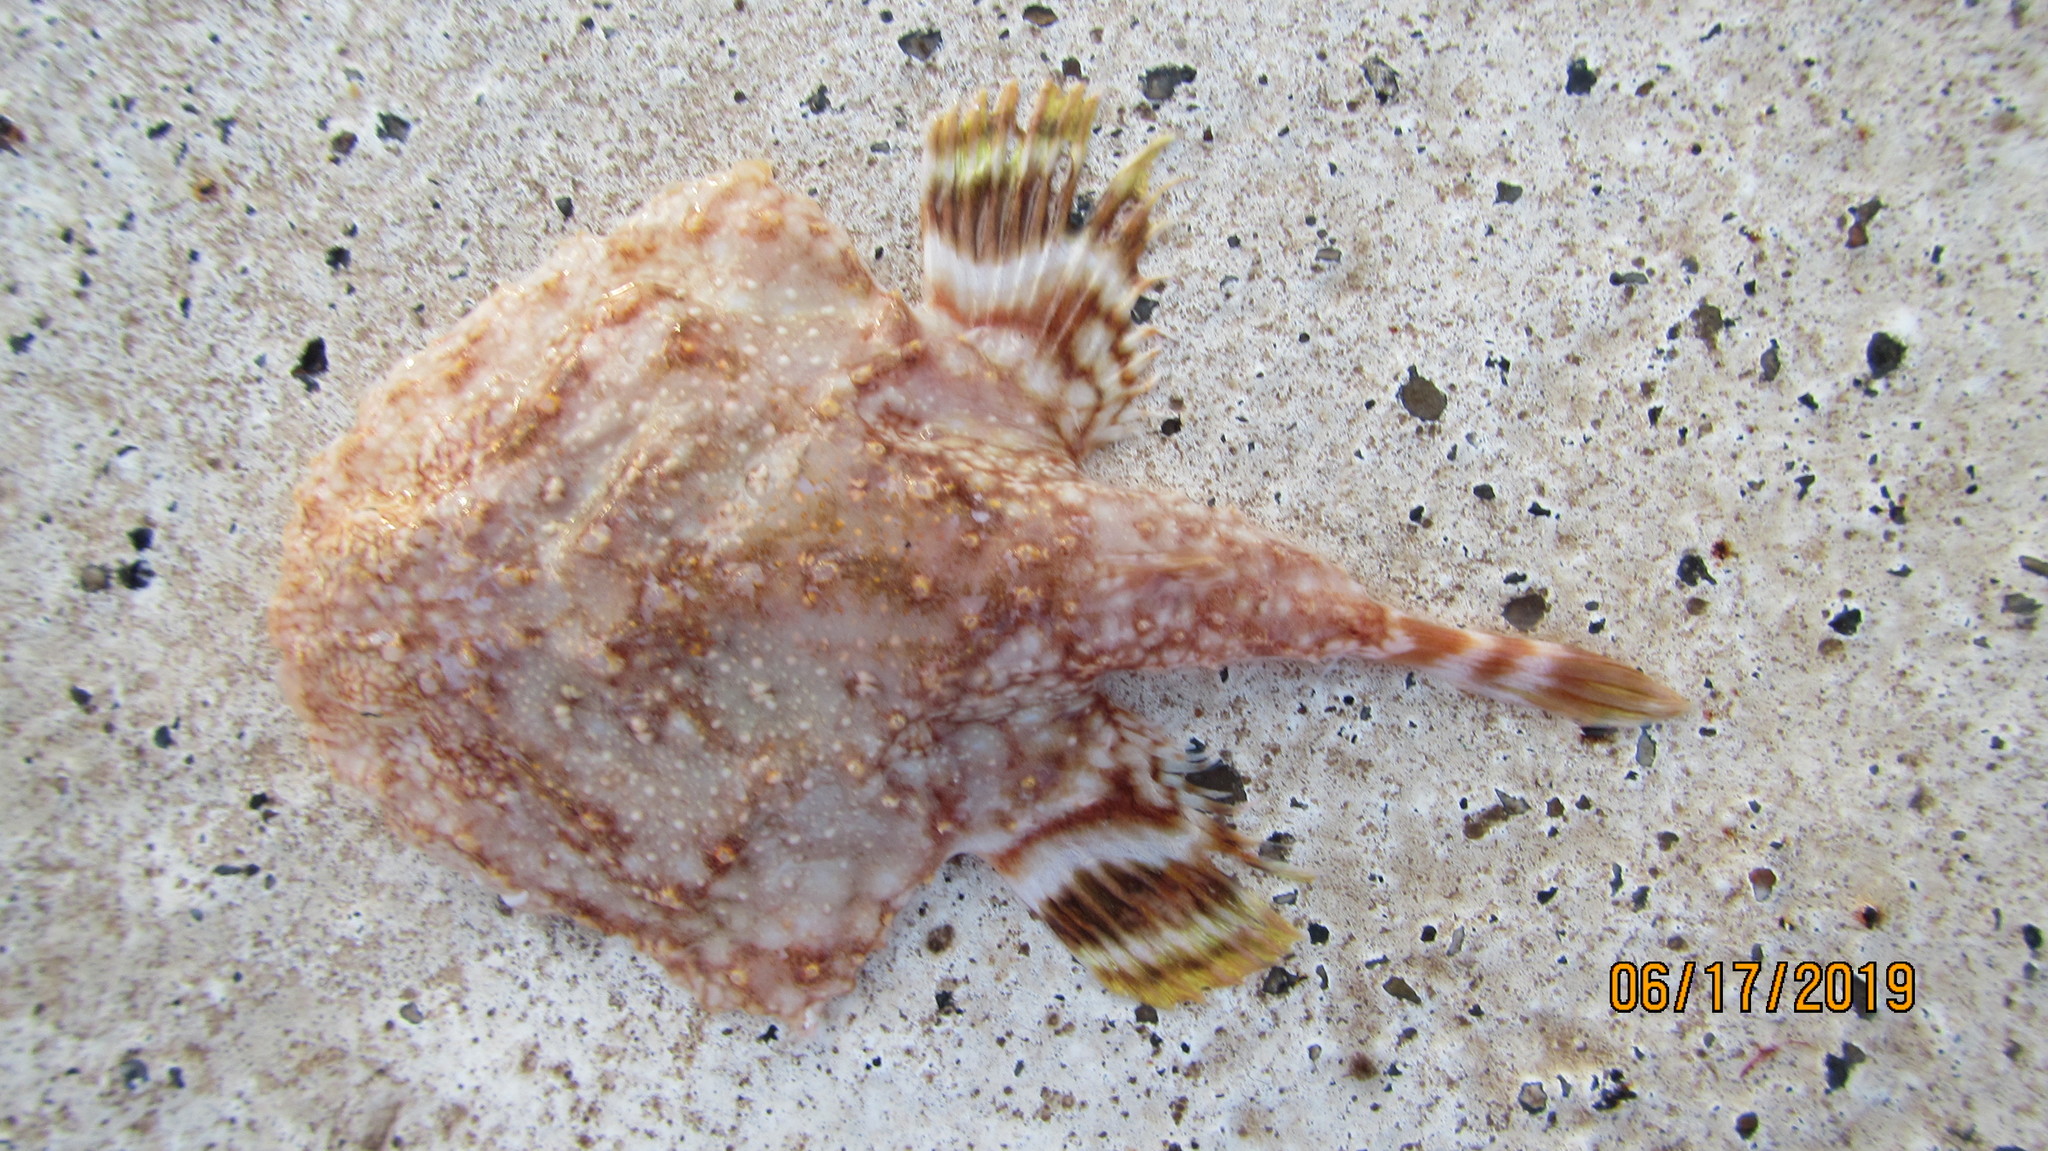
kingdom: Animalia
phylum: Chordata
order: Lophiiformes
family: Ogcocephalidae
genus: Halieutichthys
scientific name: Halieutichthys aculeatus
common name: Pancake batfish
